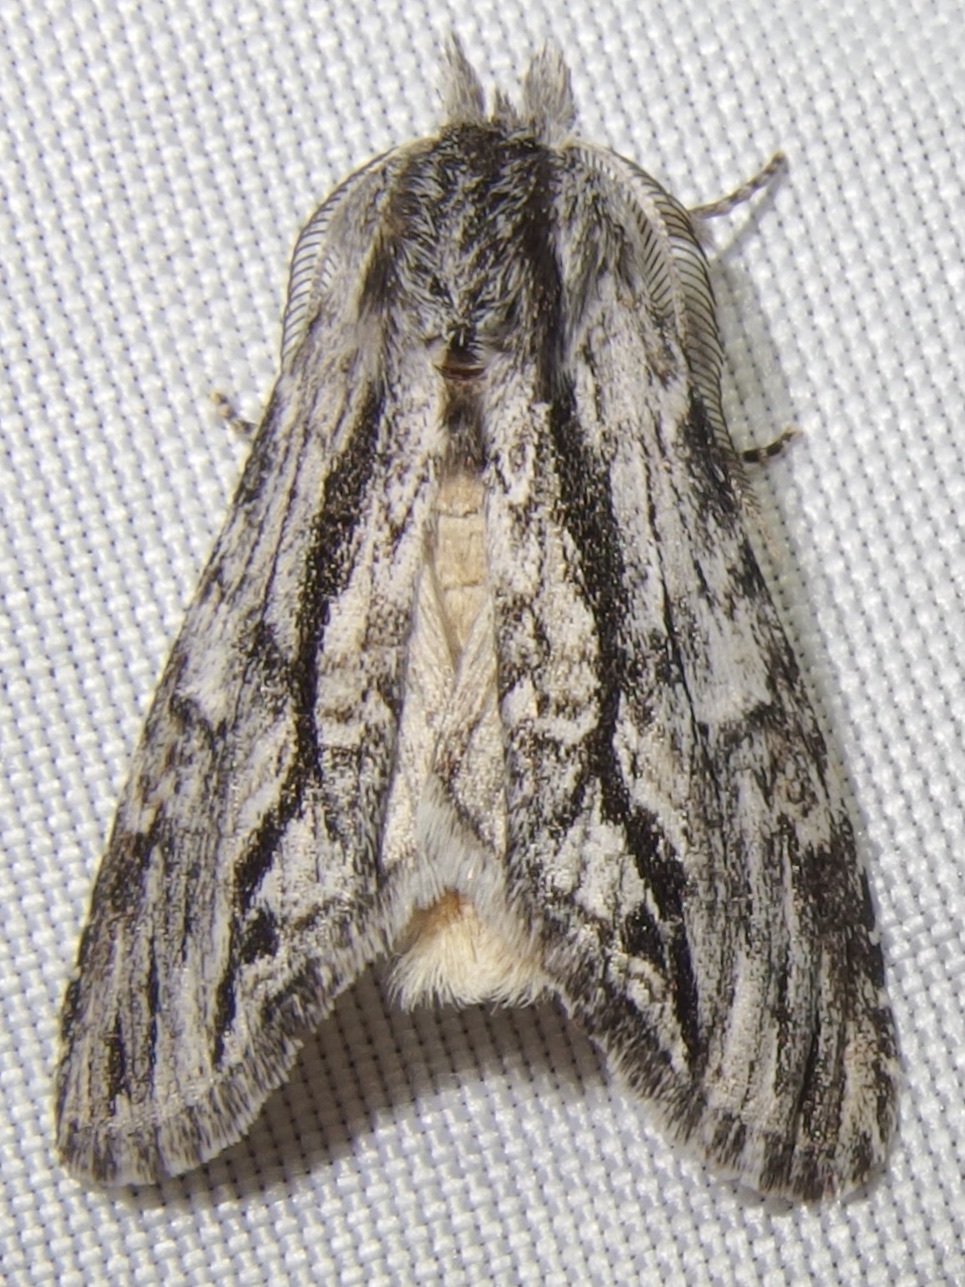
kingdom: Animalia
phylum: Arthropoda
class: Insecta
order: Lepidoptera
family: Notodontidae
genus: Notela
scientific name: Notela jaliscana
